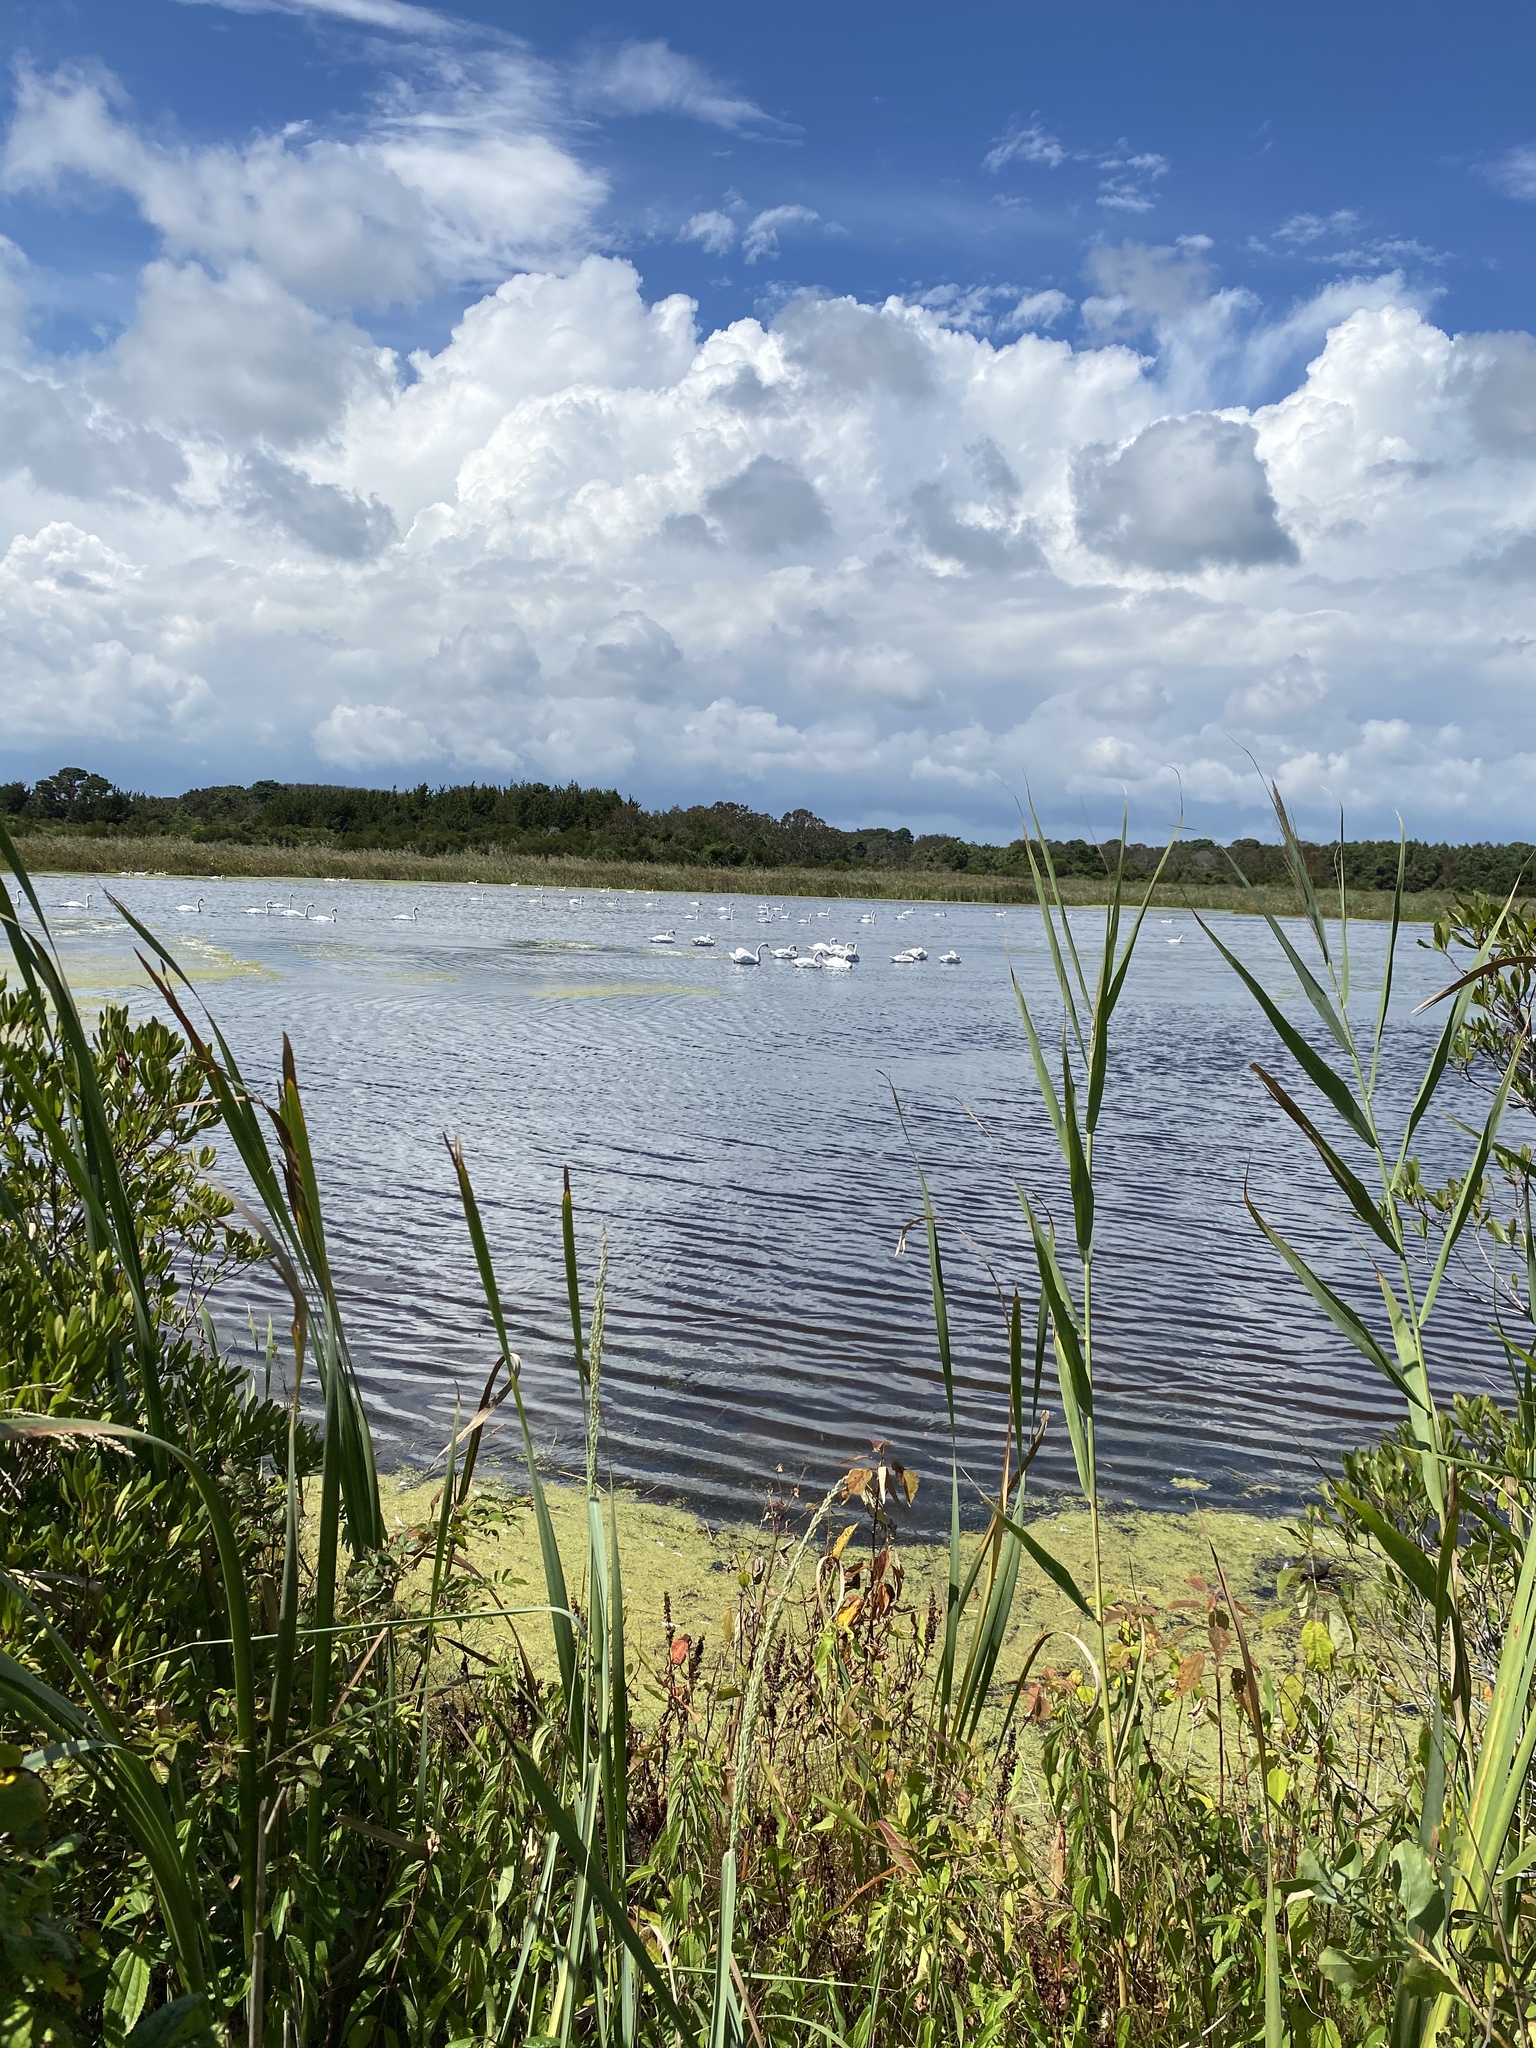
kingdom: Animalia
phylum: Chordata
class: Aves
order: Anseriformes
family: Anatidae
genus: Cygnus
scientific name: Cygnus olor
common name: Mute swan
